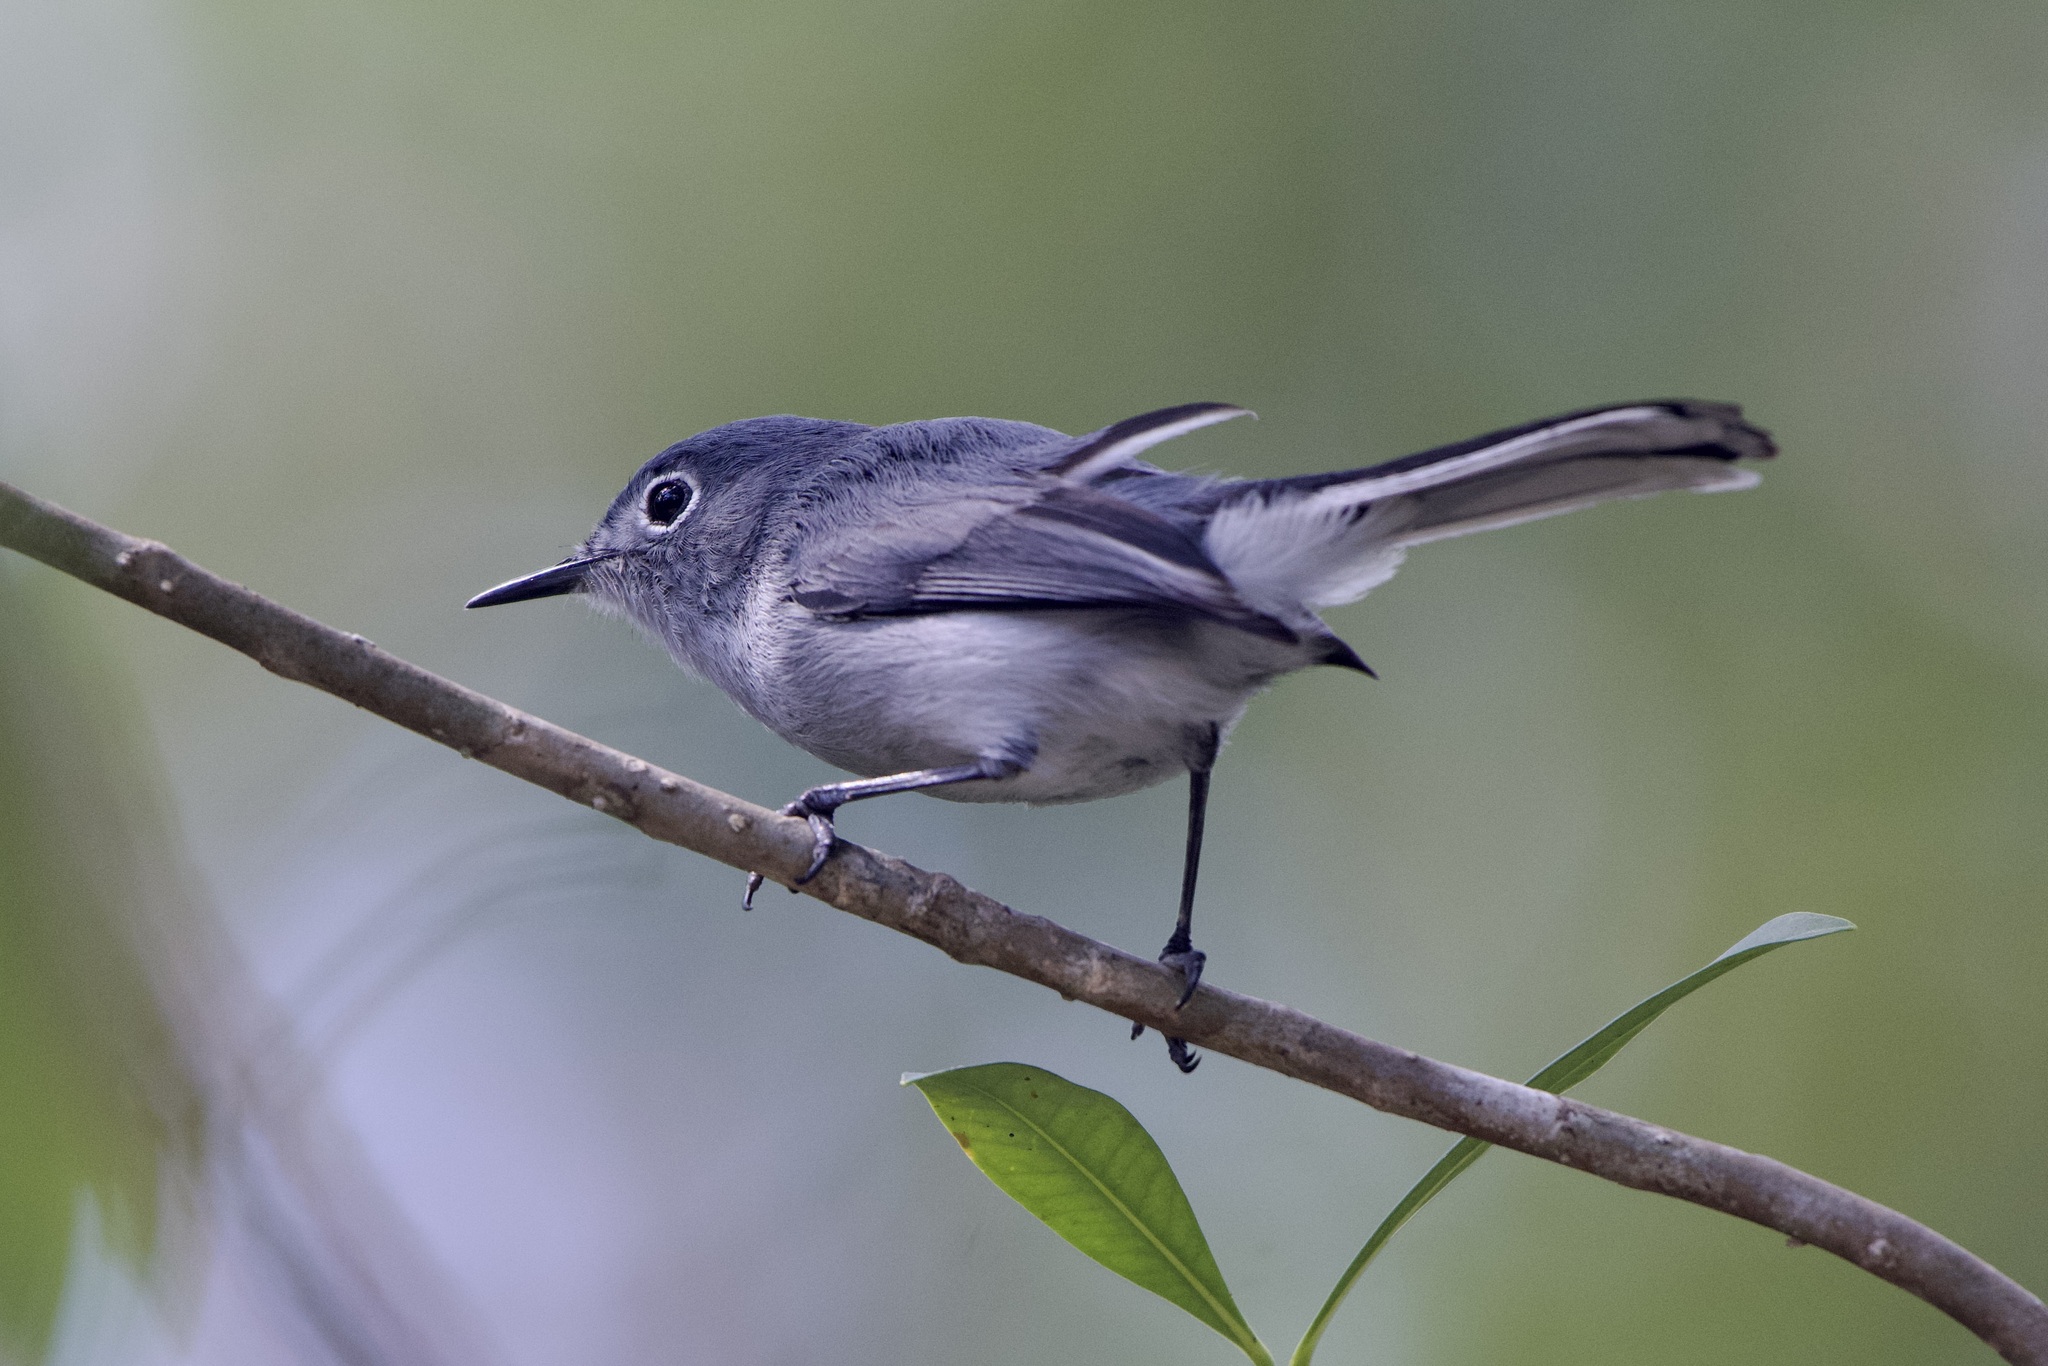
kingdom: Animalia
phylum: Chordata
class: Aves
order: Passeriformes
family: Polioptilidae
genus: Polioptila
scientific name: Polioptila caerulea
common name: Blue-gray gnatcatcher
